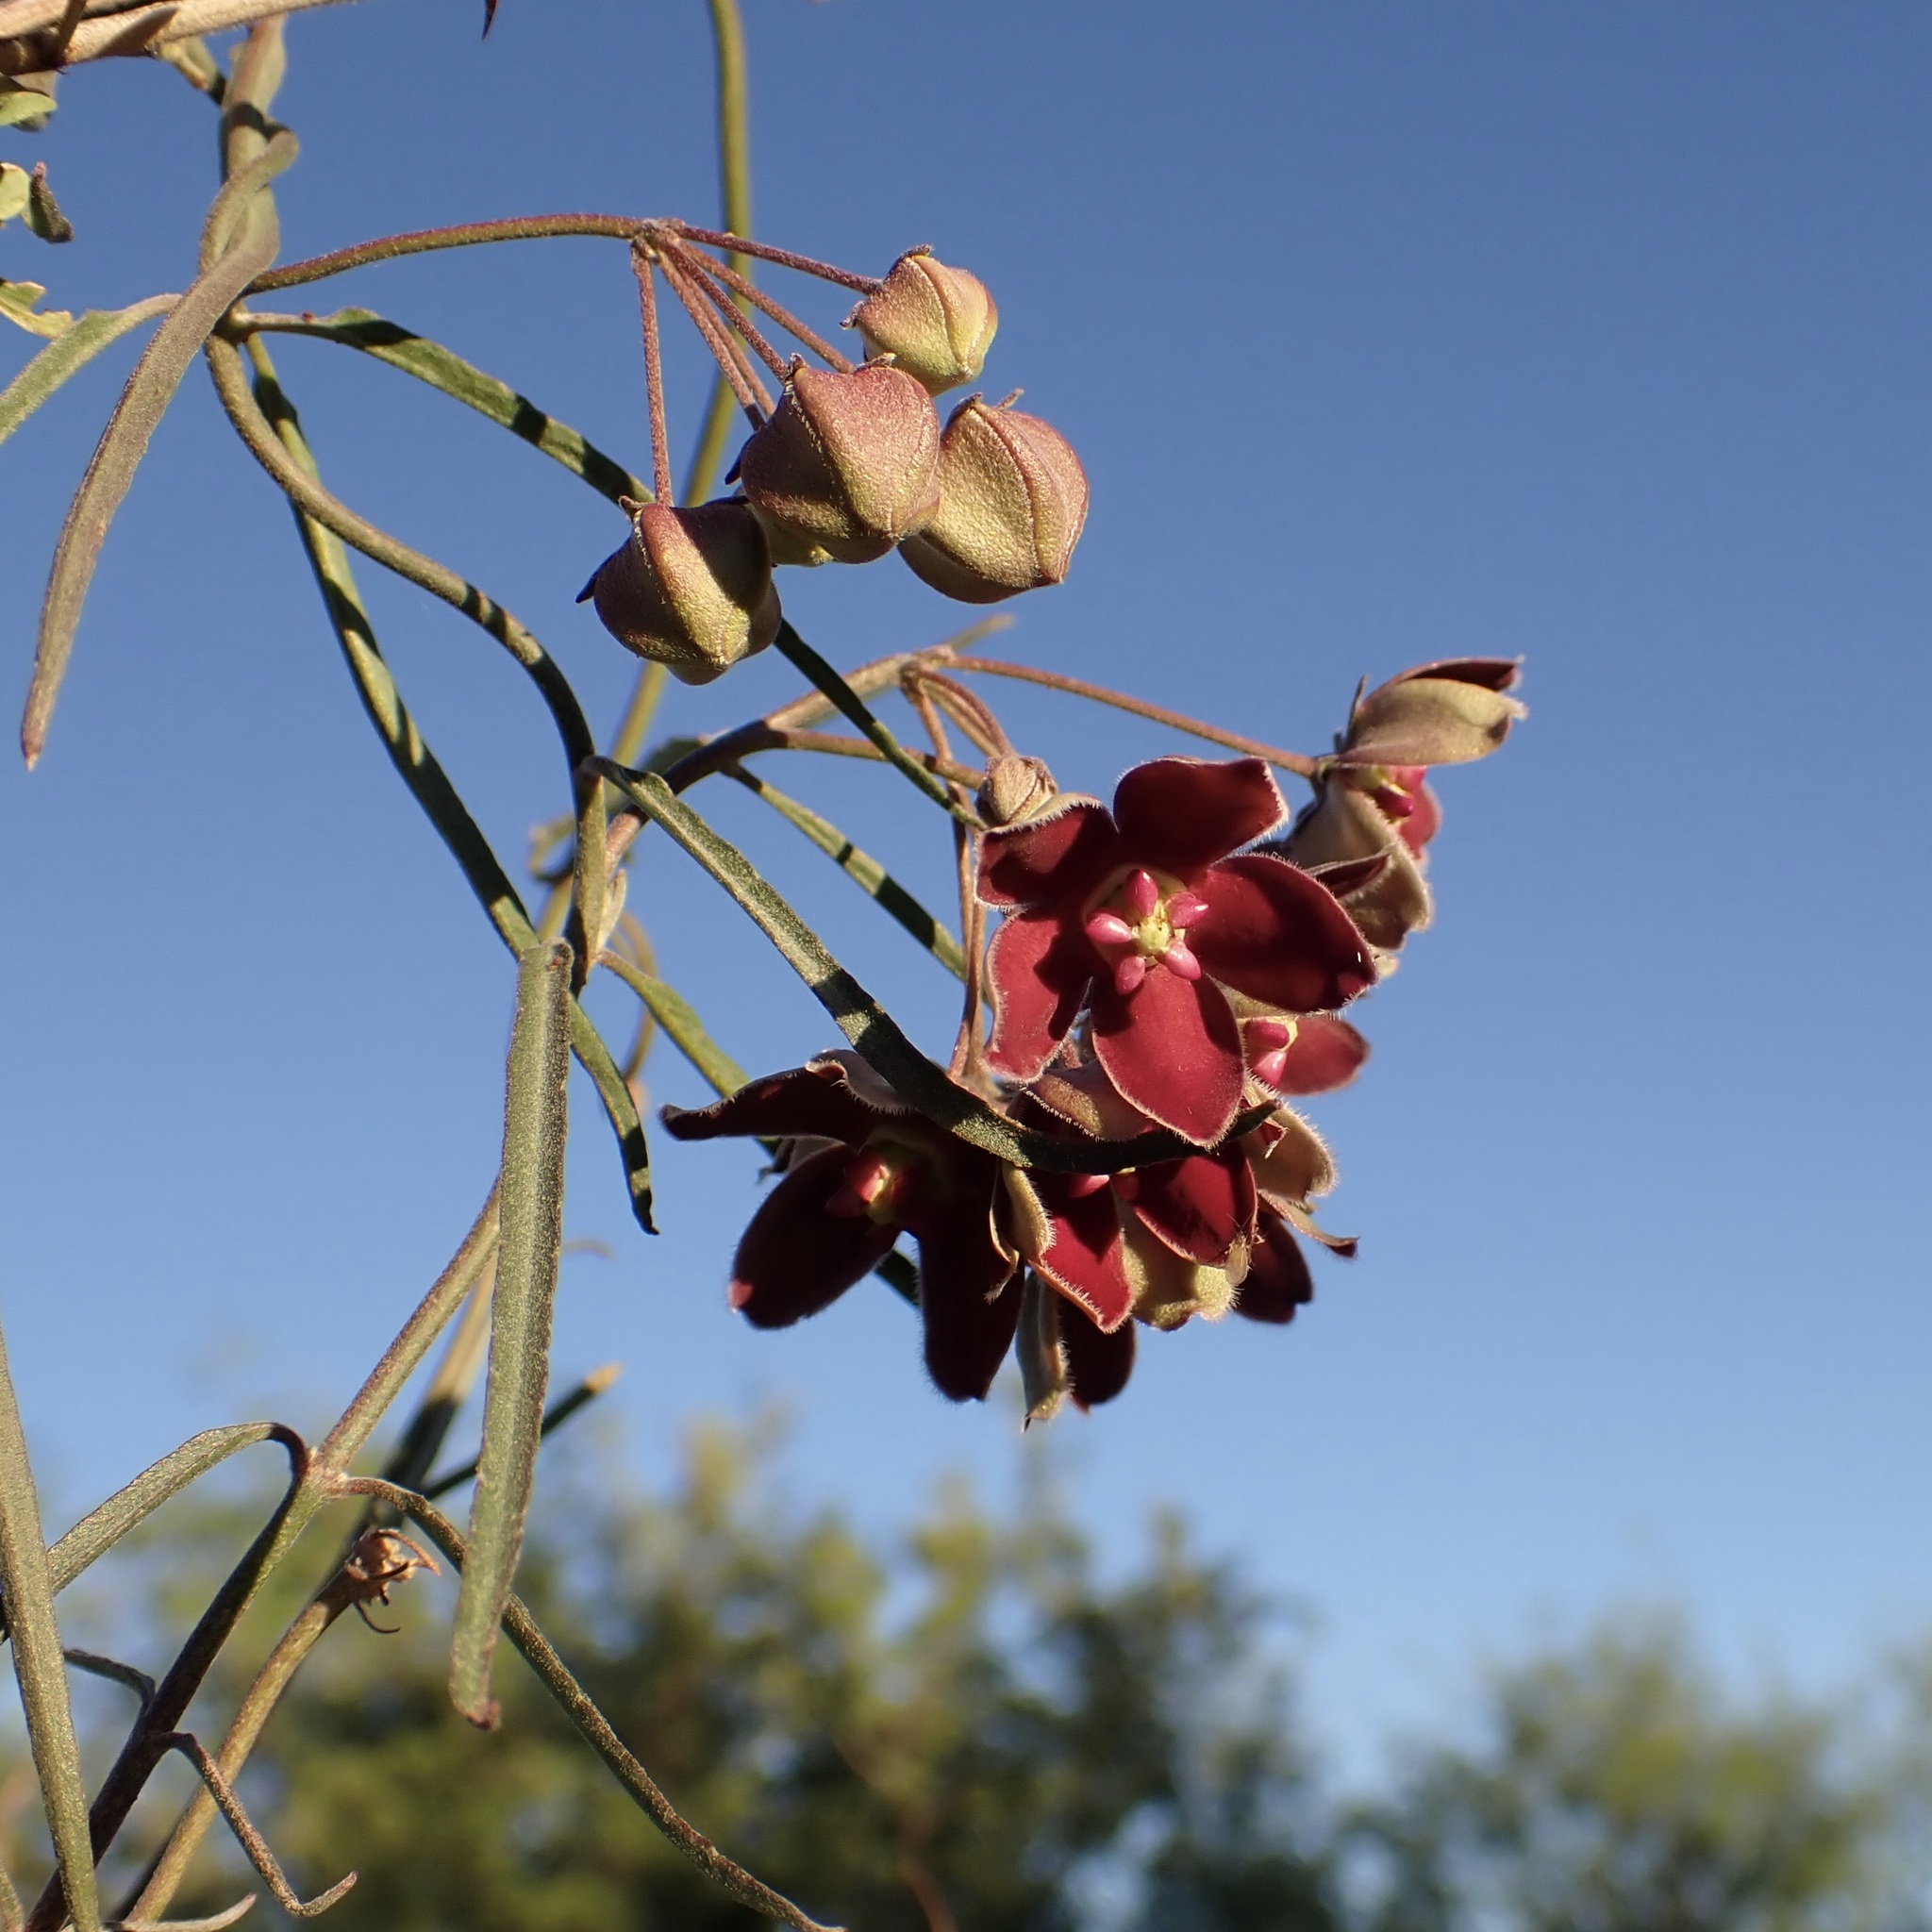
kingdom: Plantae
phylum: Tracheophyta
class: Magnoliopsida
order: Gentianales
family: Apocynaceae
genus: Funastrum
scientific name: Funastrum crispum
